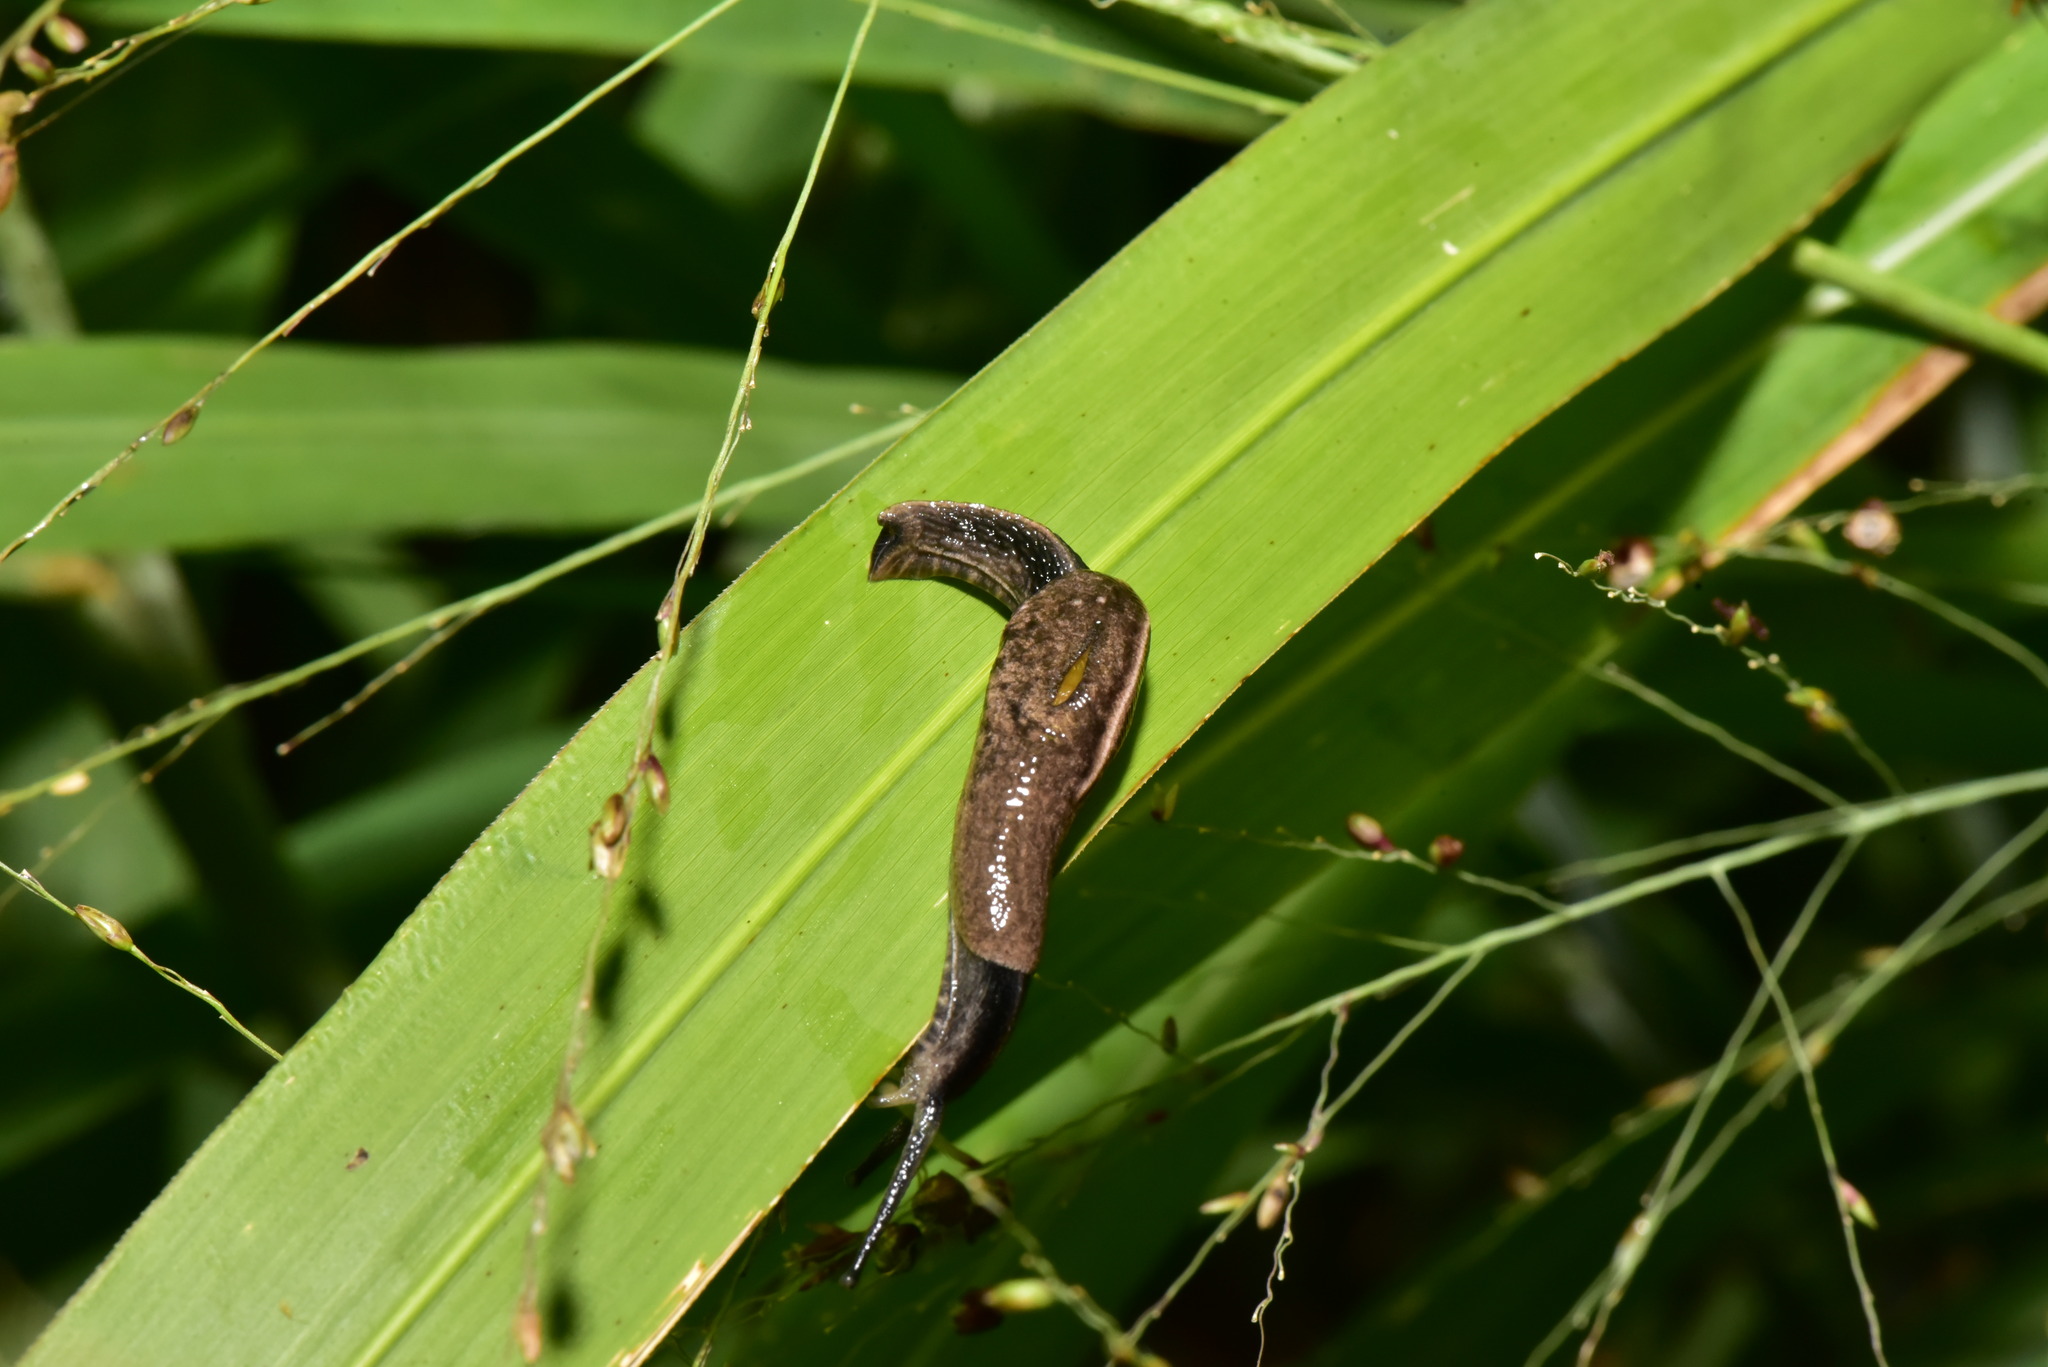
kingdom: Animalia
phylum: Mollusca
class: Gastropoda
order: Stylommatophora
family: Ariophantidae
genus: Parmarion
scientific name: Parmarion martensi
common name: Semi-slug
